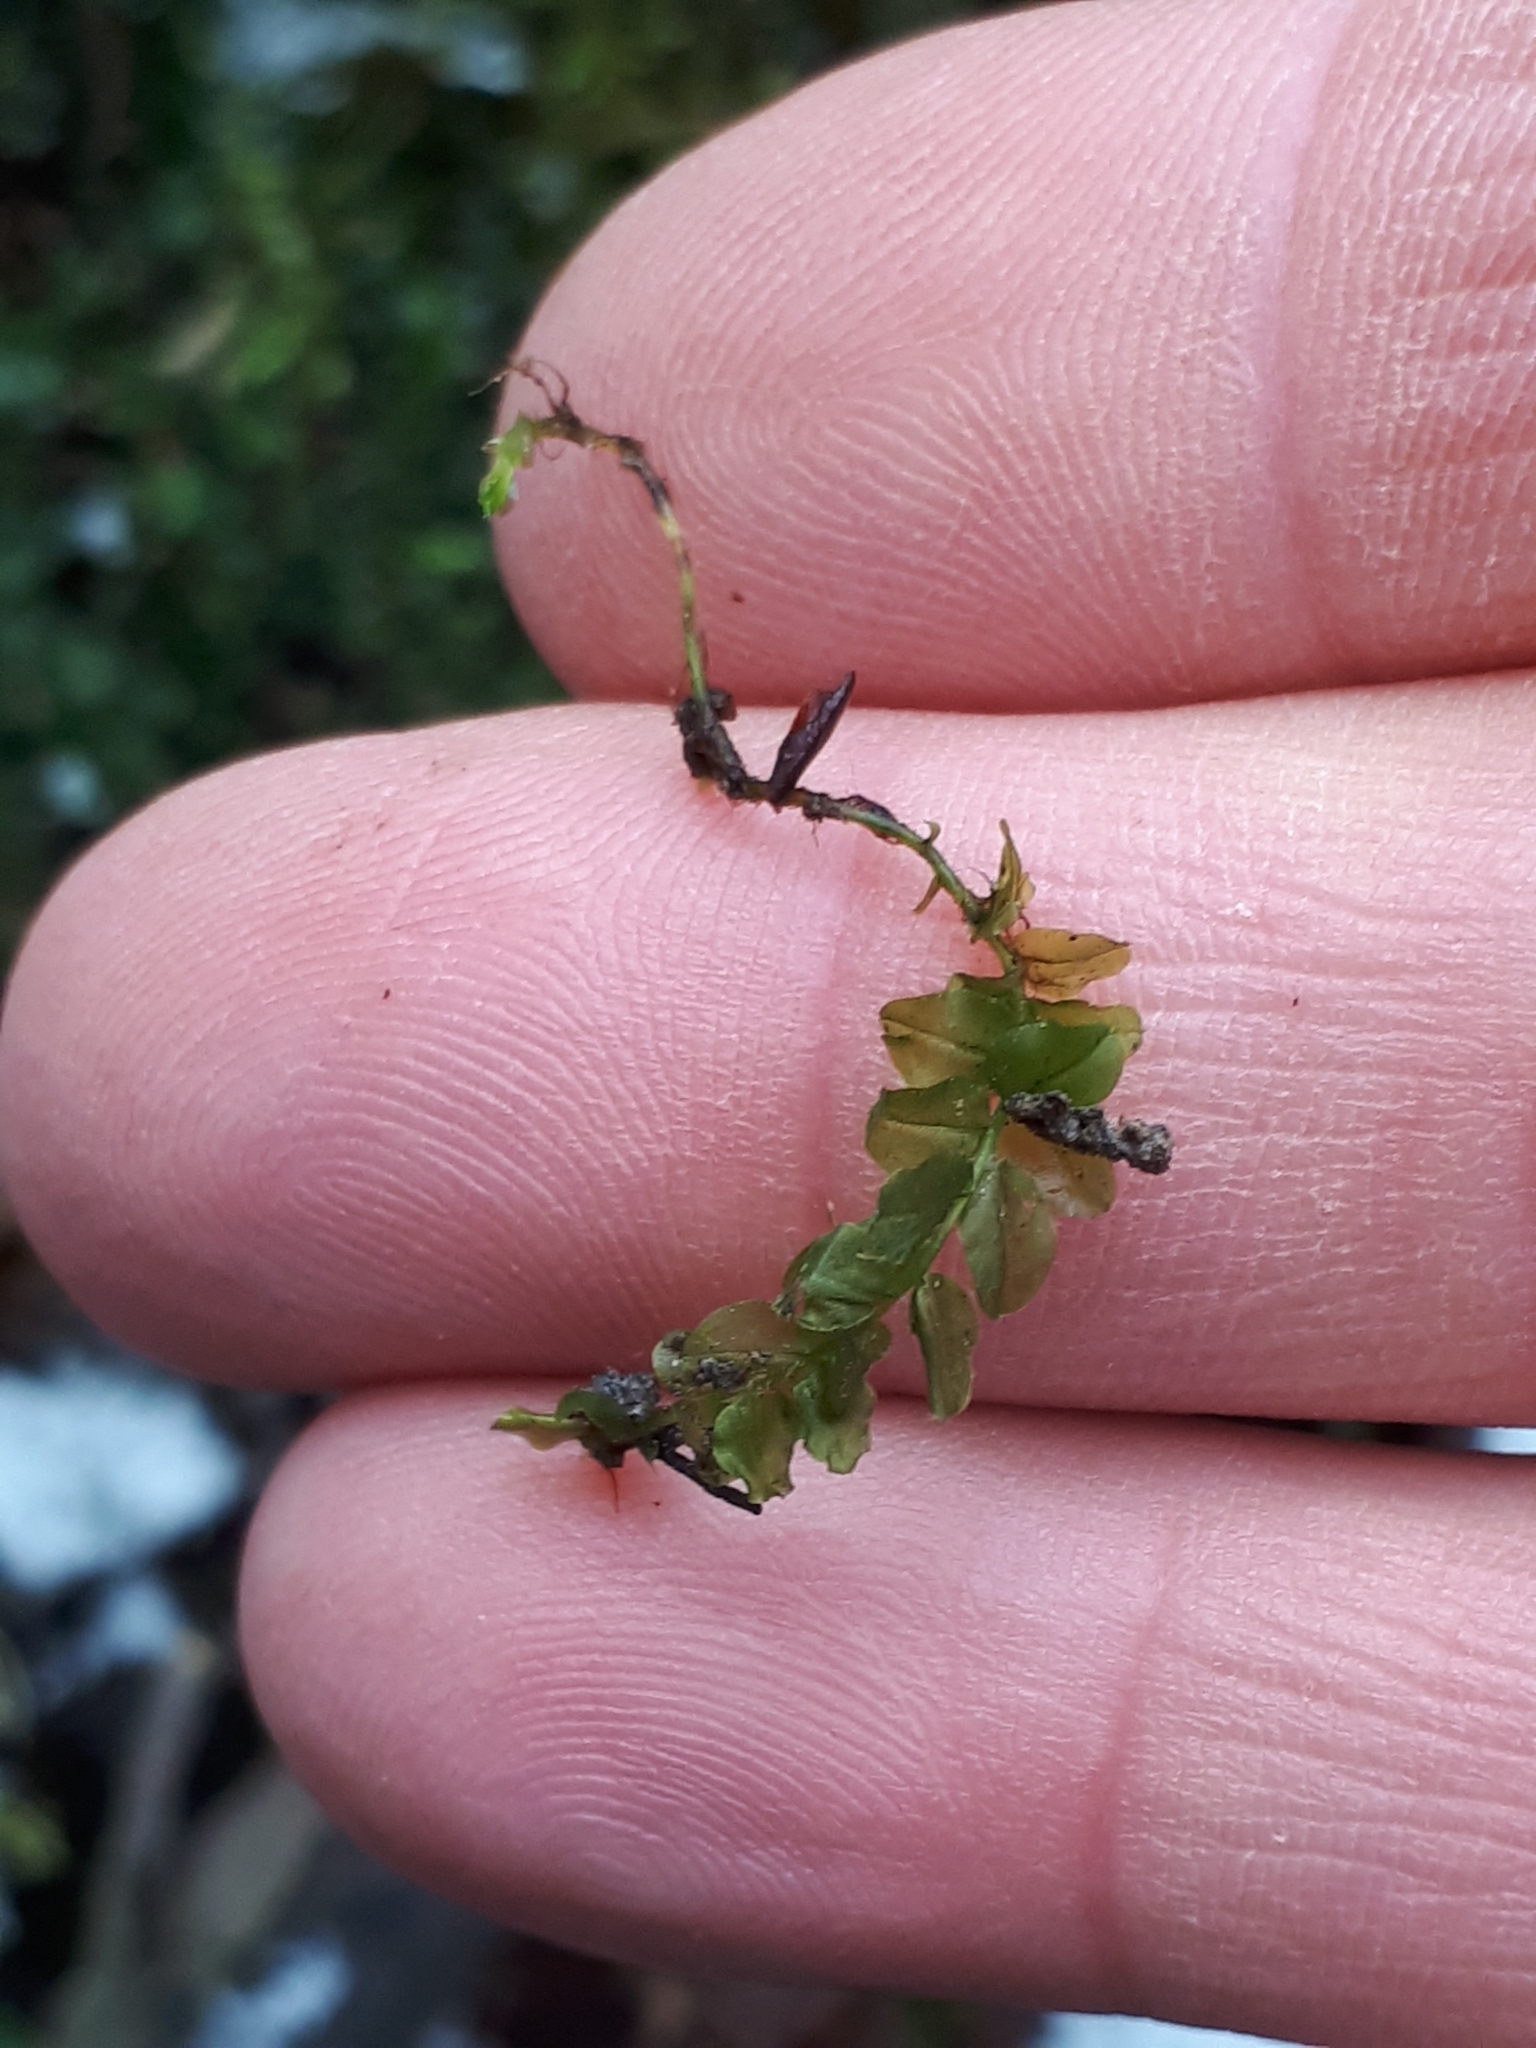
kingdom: Plantae
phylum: Bryophyta
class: Bryopsida
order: Bryales
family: Mniaceae
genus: Plagiomnium
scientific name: Plagiomnium affine
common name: Many-fruited thyme-moss
